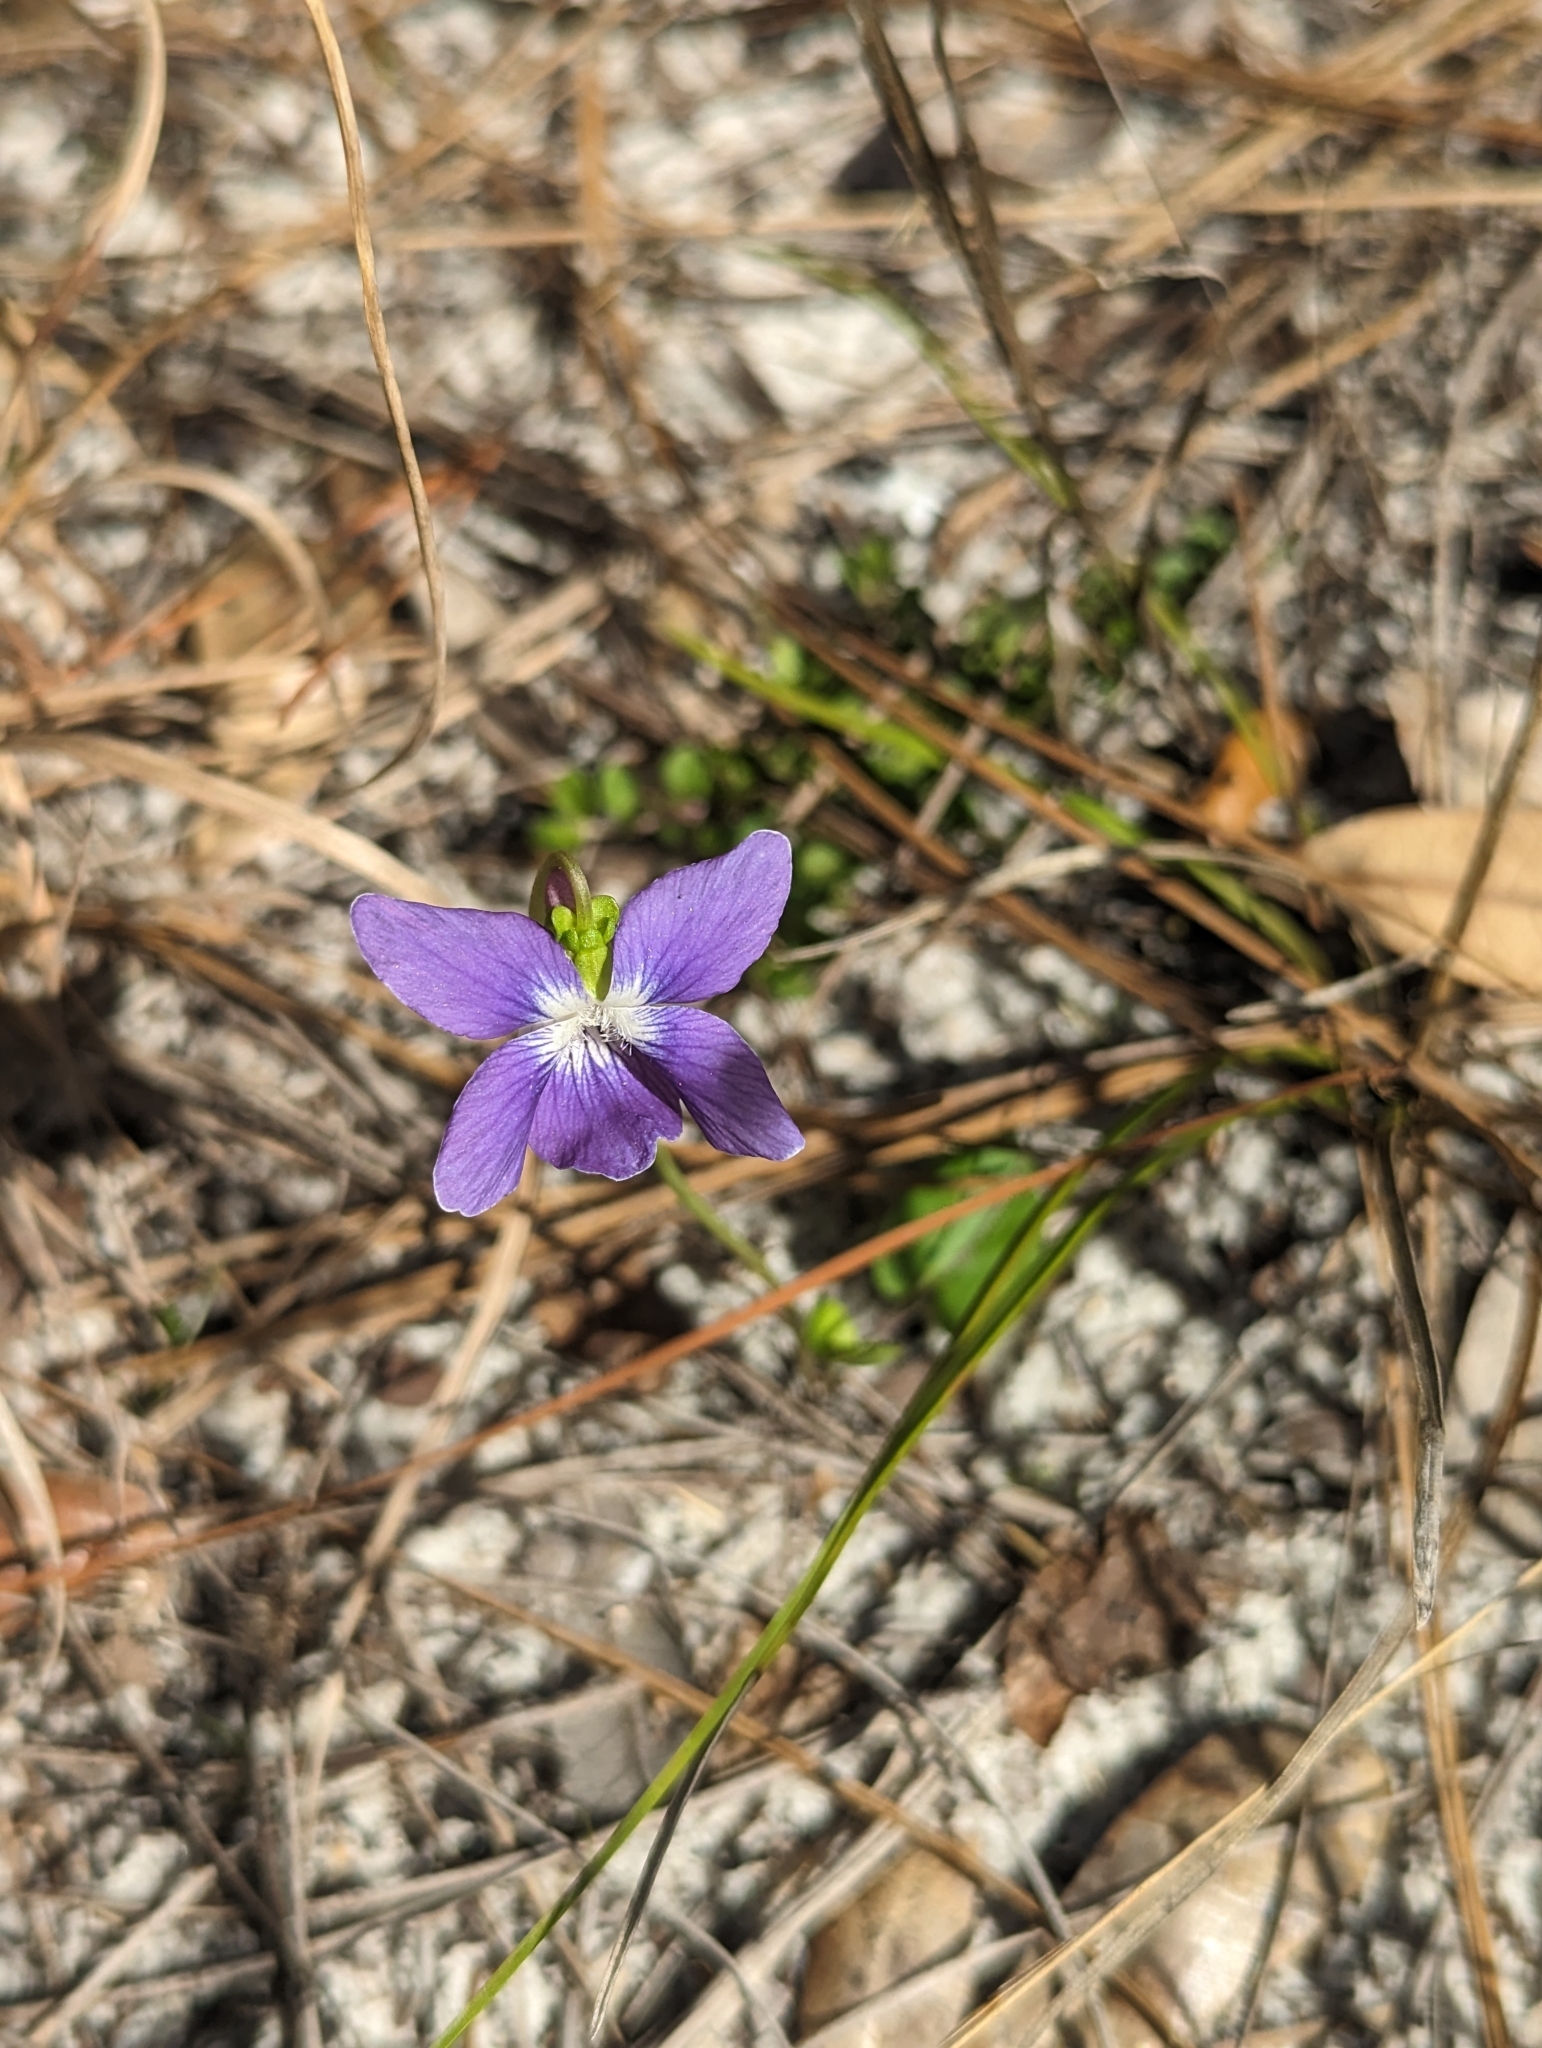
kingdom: Plantae
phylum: Tracheophyta
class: Magnoliopsida
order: Malpighiales
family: Violaceae
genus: Viola
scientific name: Viola septemloba
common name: Southern coast violet
